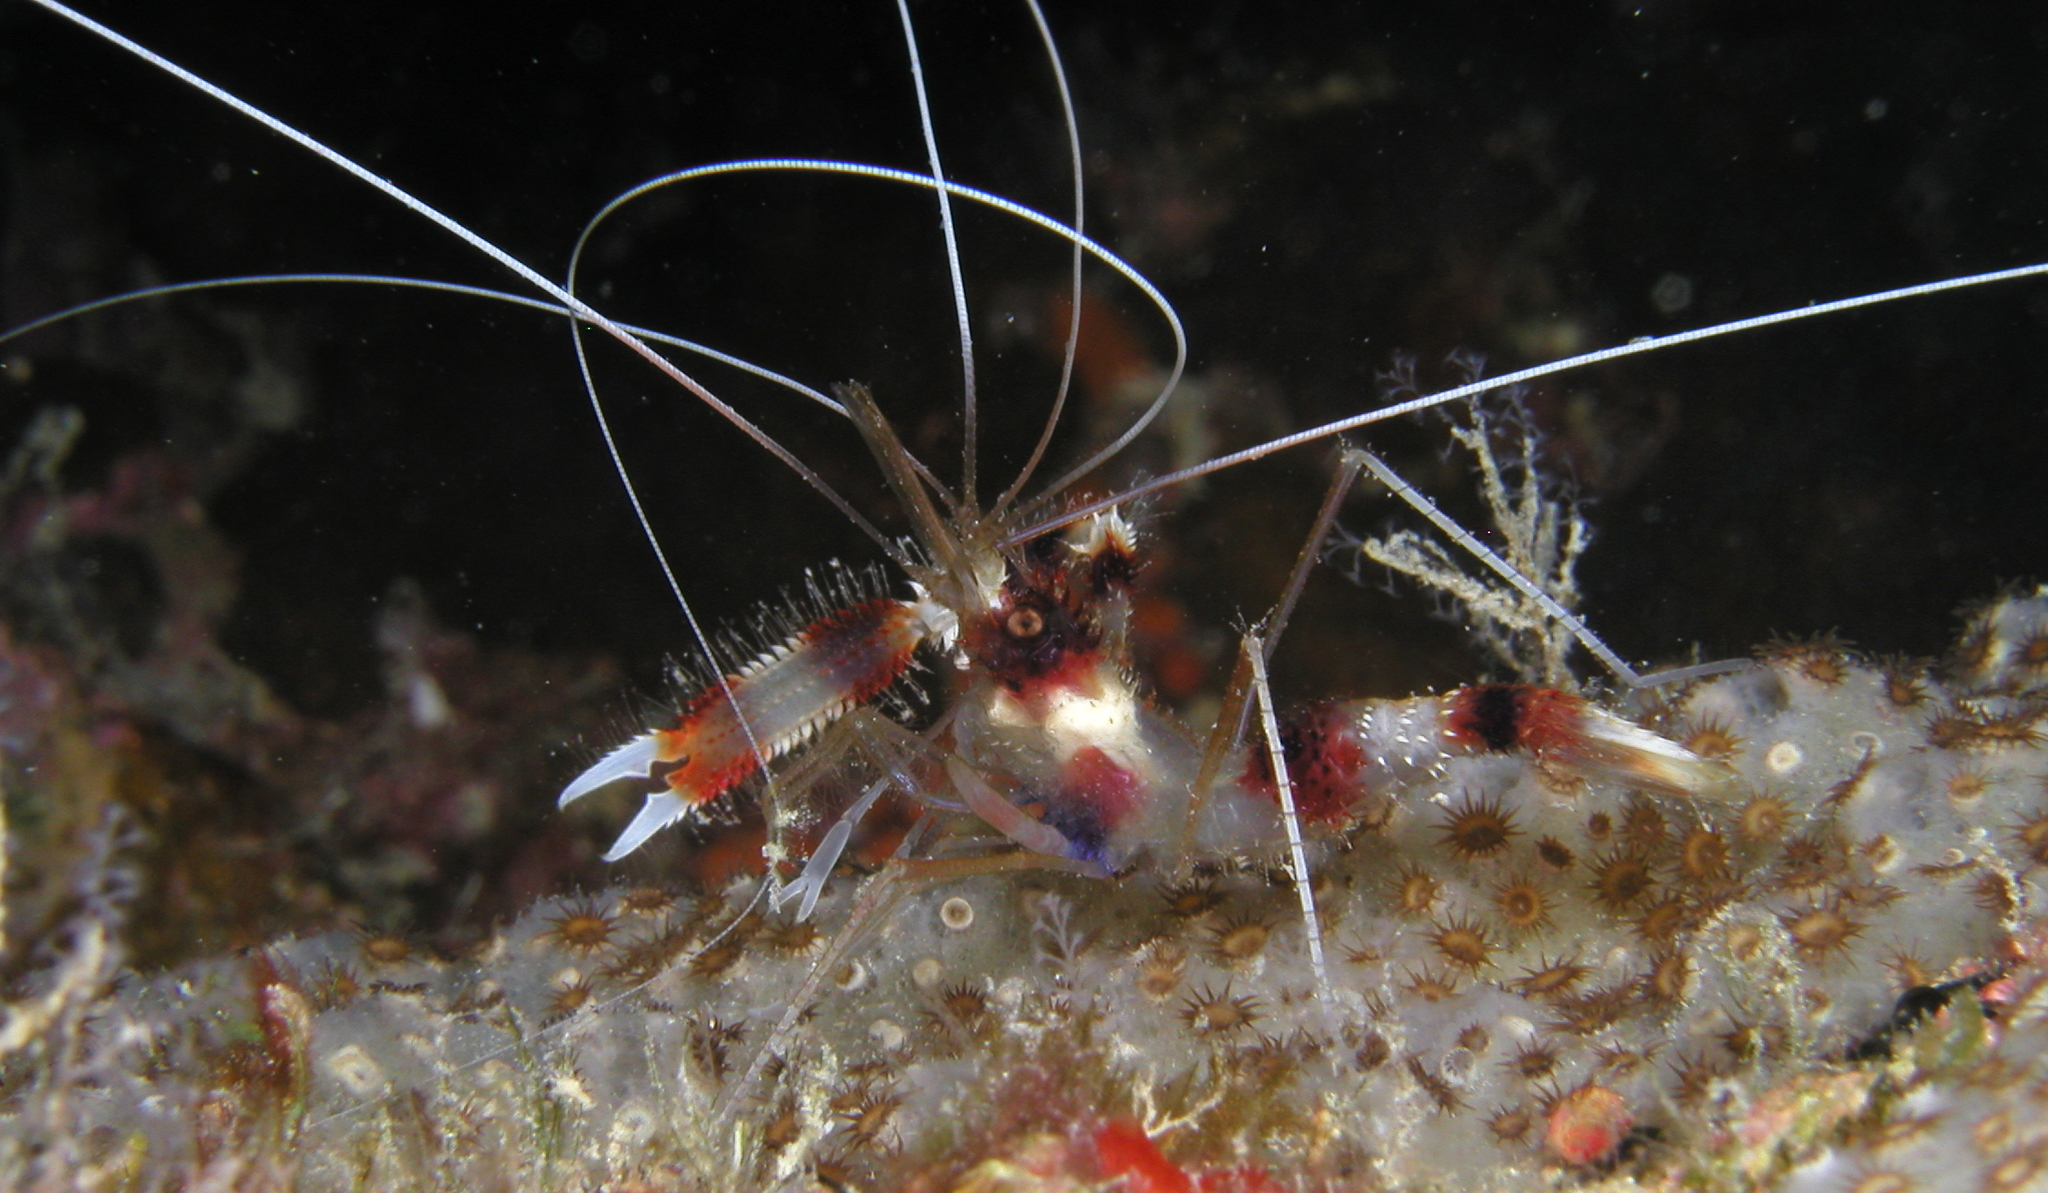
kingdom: Animalia
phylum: Arthropoda
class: Malacostraca
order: Decapoda
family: Stenopodidae
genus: Stenopus
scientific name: Stenopus hispidus
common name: Banded coral shrimp
